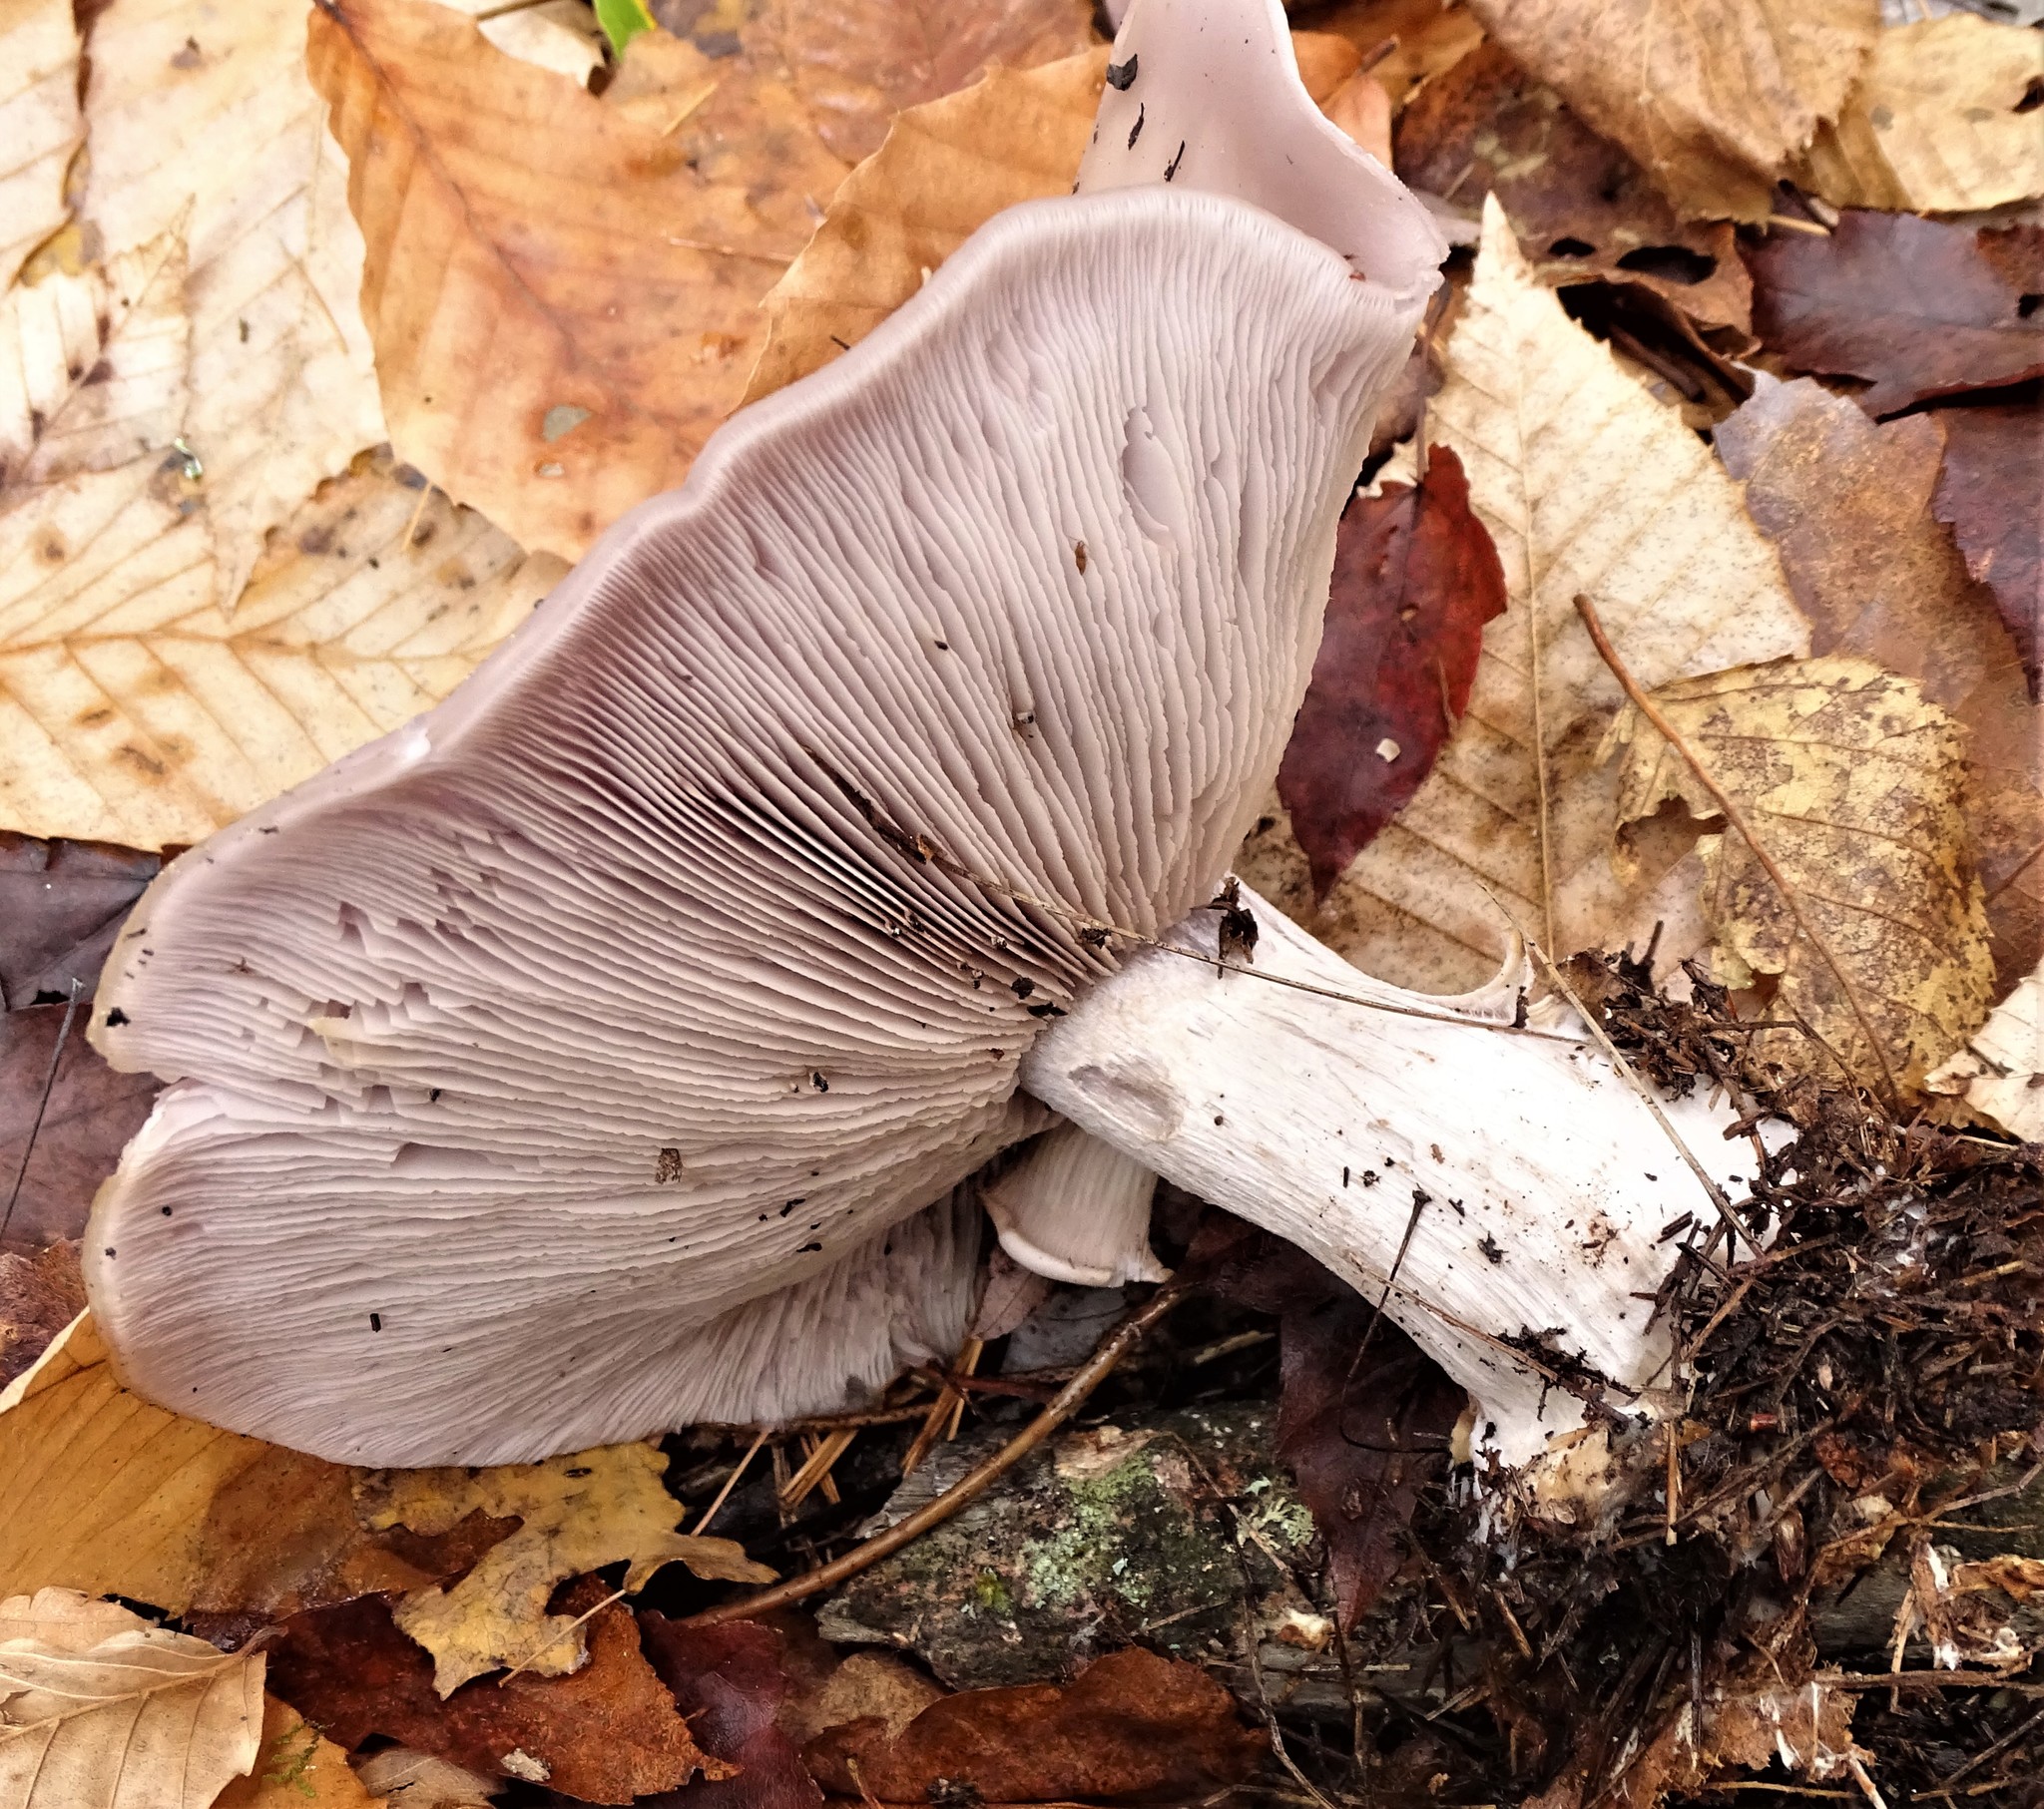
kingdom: Fungi
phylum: Basidiomycota
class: Agaricomycetes
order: Agaricales
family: Tricholomataceae
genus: Collybia
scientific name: Collybia
